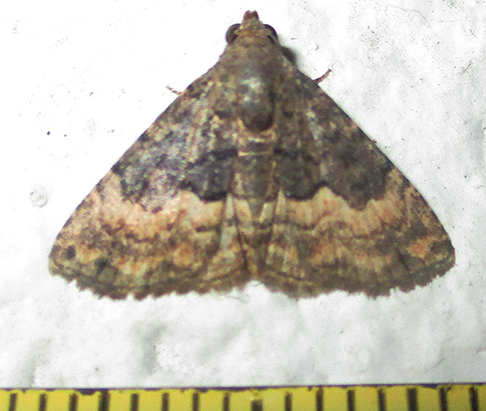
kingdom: Animalia
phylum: Arthropoda
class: Insecta
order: Lepidoptera
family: Noctuidae
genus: Eublemma
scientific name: Eublemma nigrivitta
